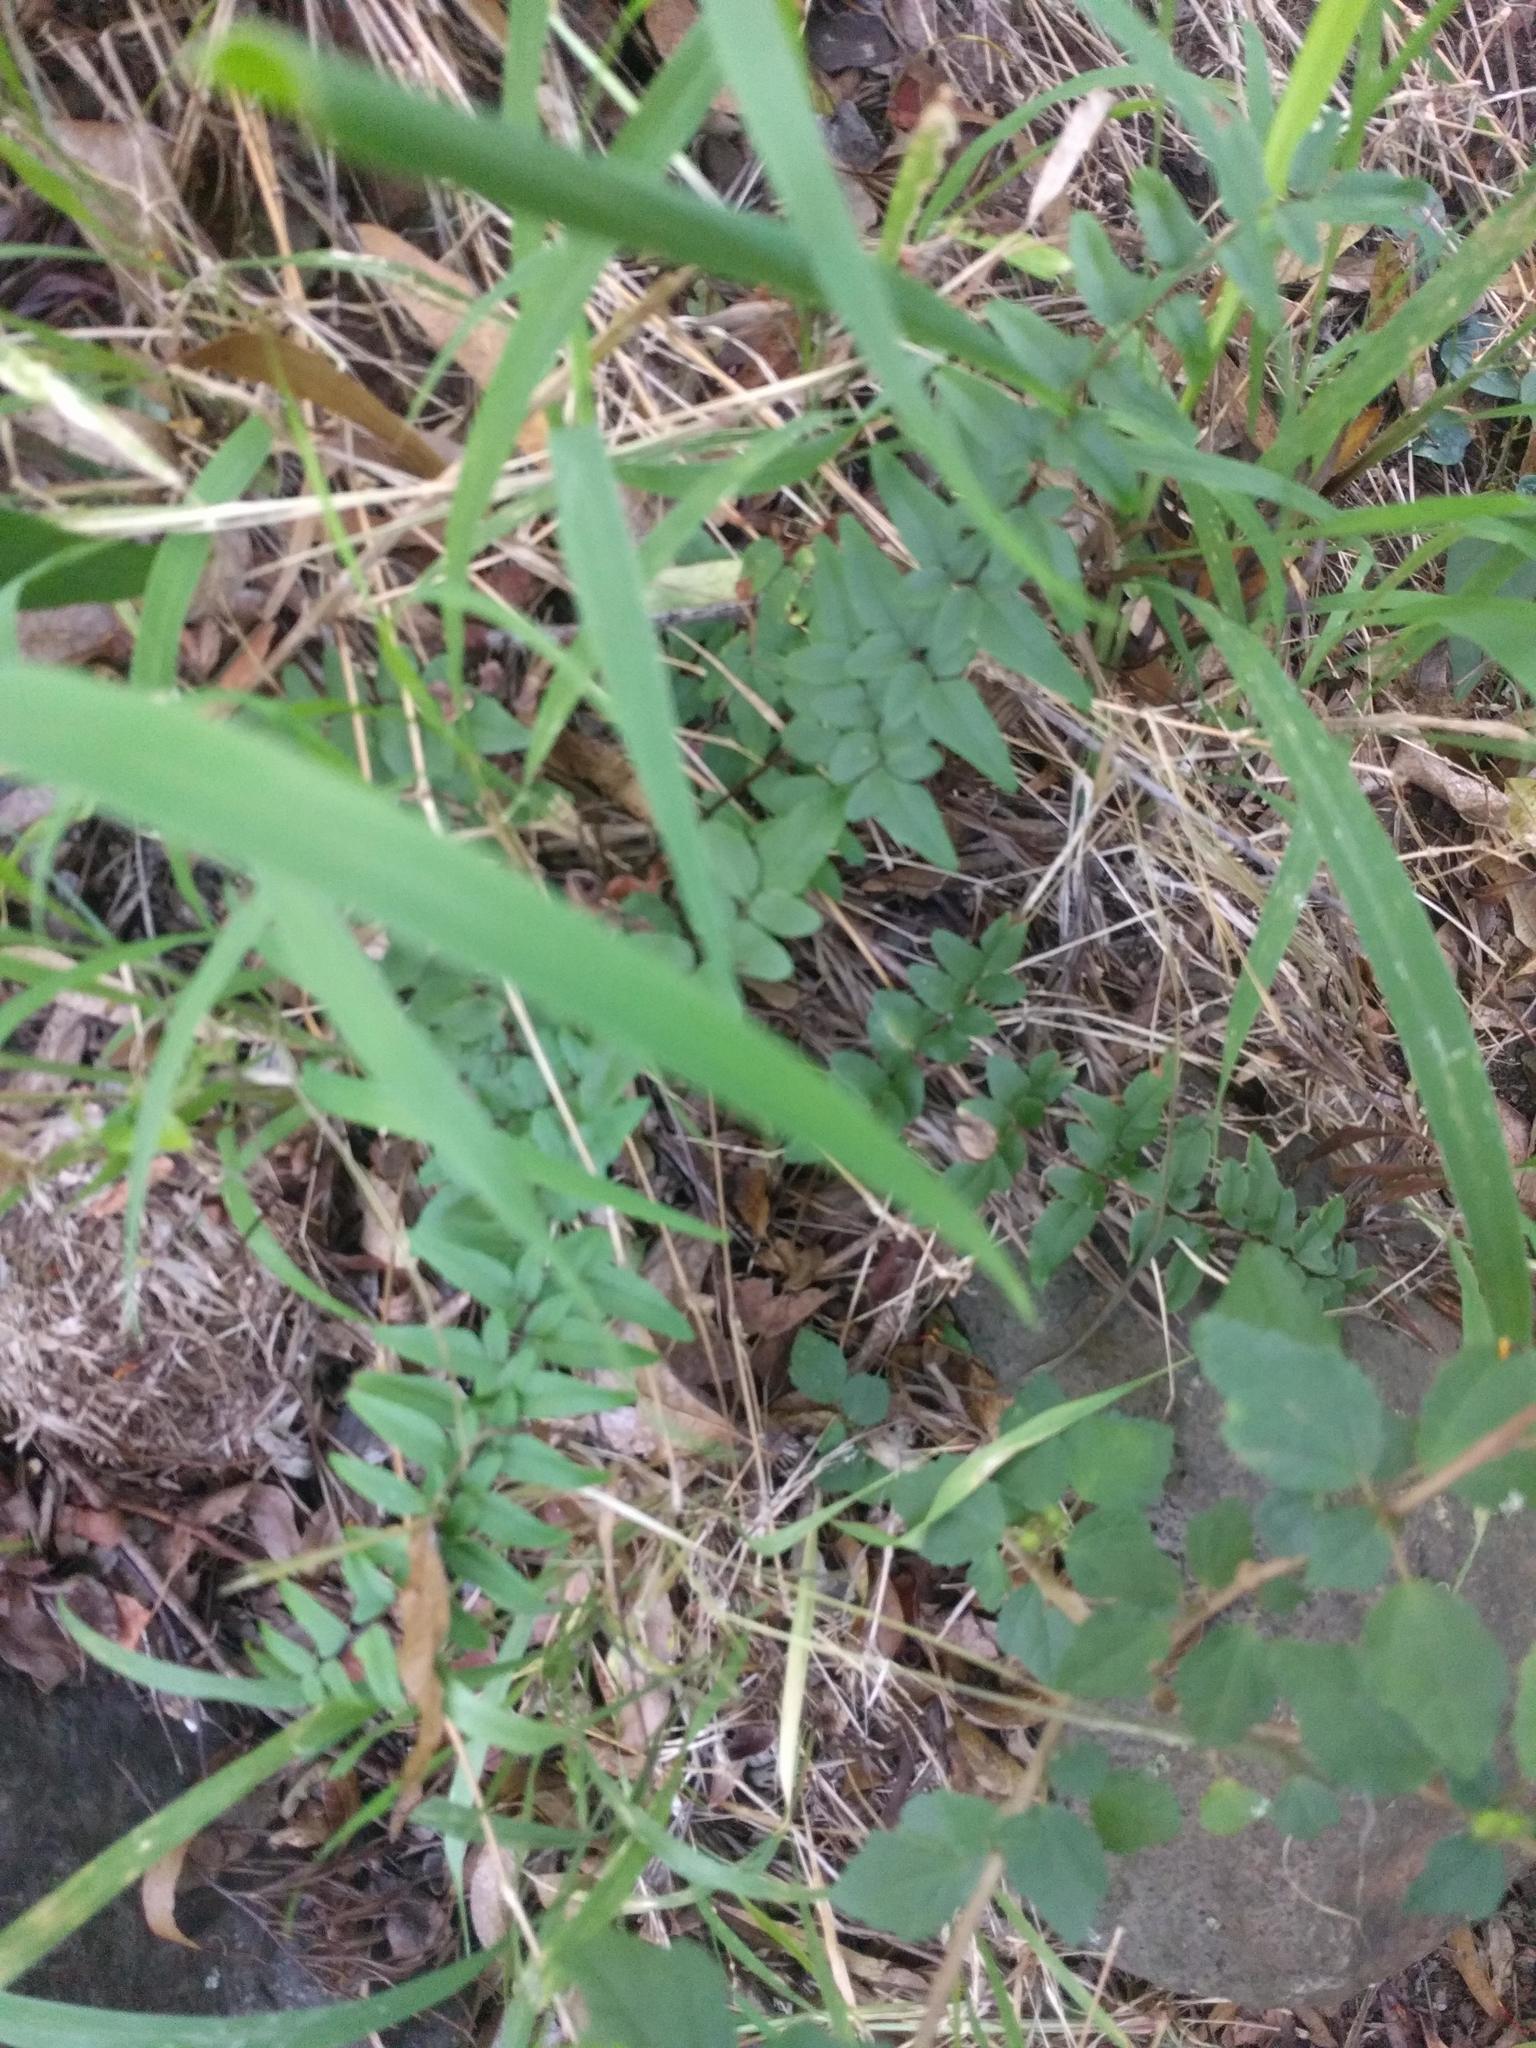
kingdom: Plantae
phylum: Tracheophyta
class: Polypodiopsida
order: Polypodiales
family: Pteridaceae
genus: Cheilanthes
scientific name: Cheilanthes viridis
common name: Green cliffbrake
